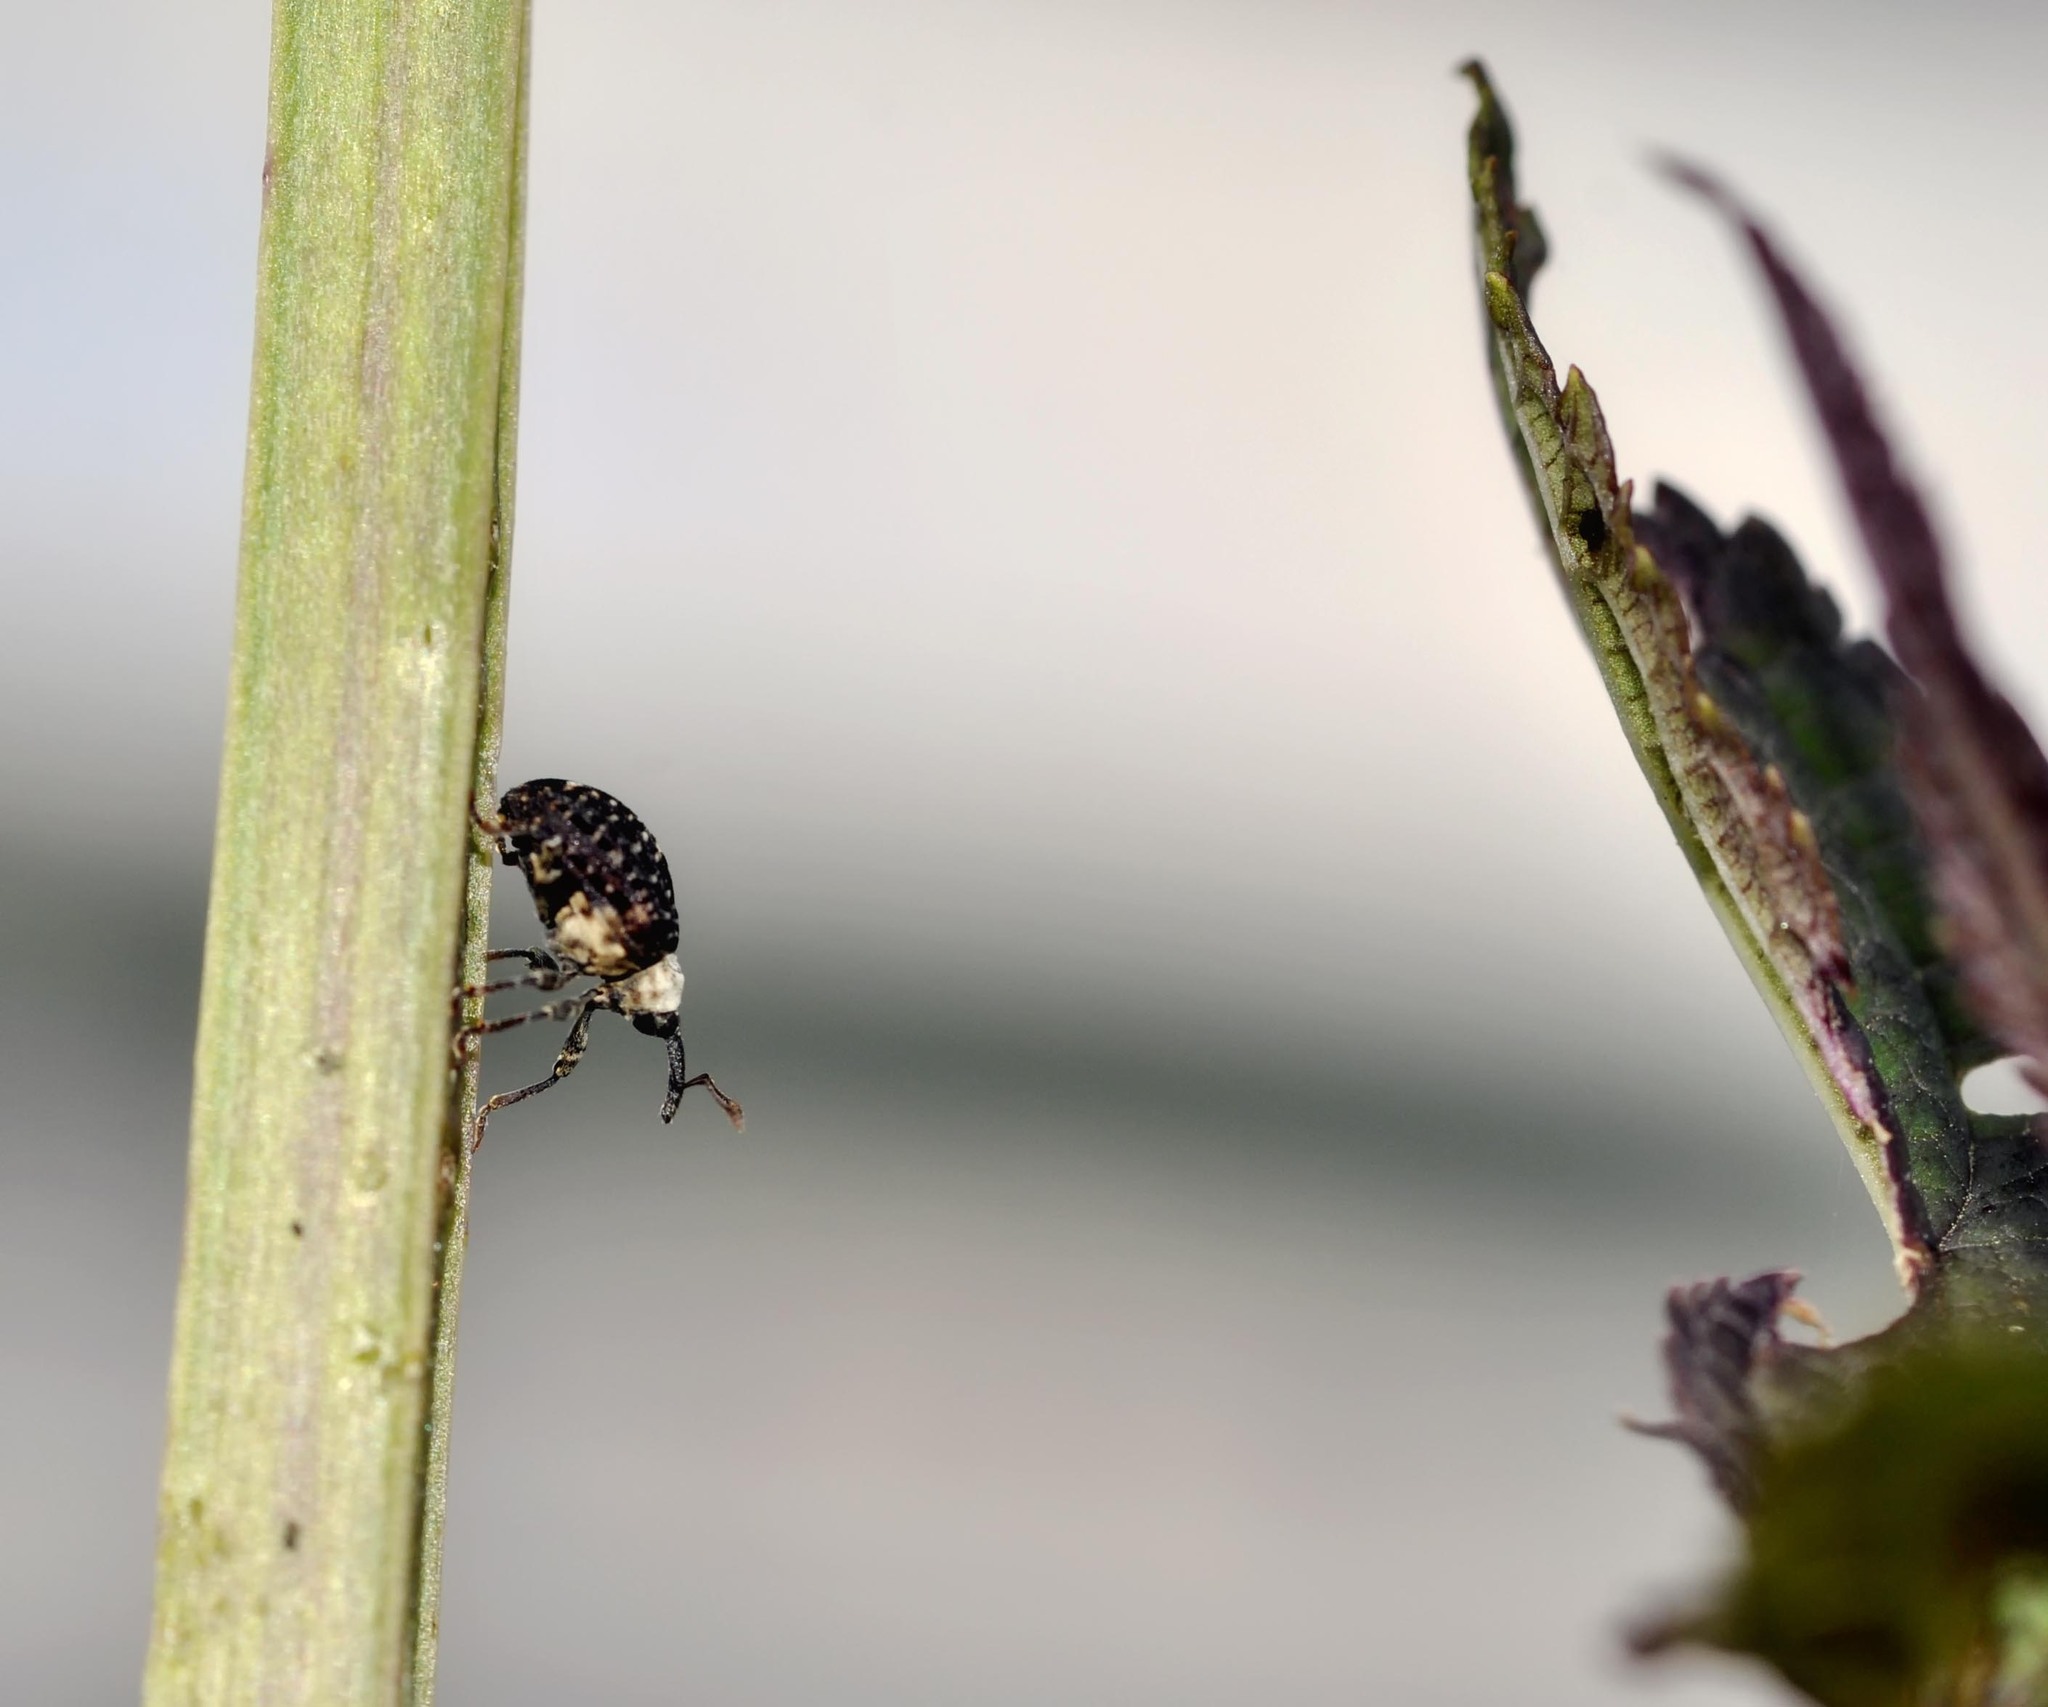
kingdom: Animalia
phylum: Arthropoda
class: Insecta
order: Coleoptera
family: Curculionidae
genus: Cionus
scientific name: Cionus scrophulariae
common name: Common figwort weevil
